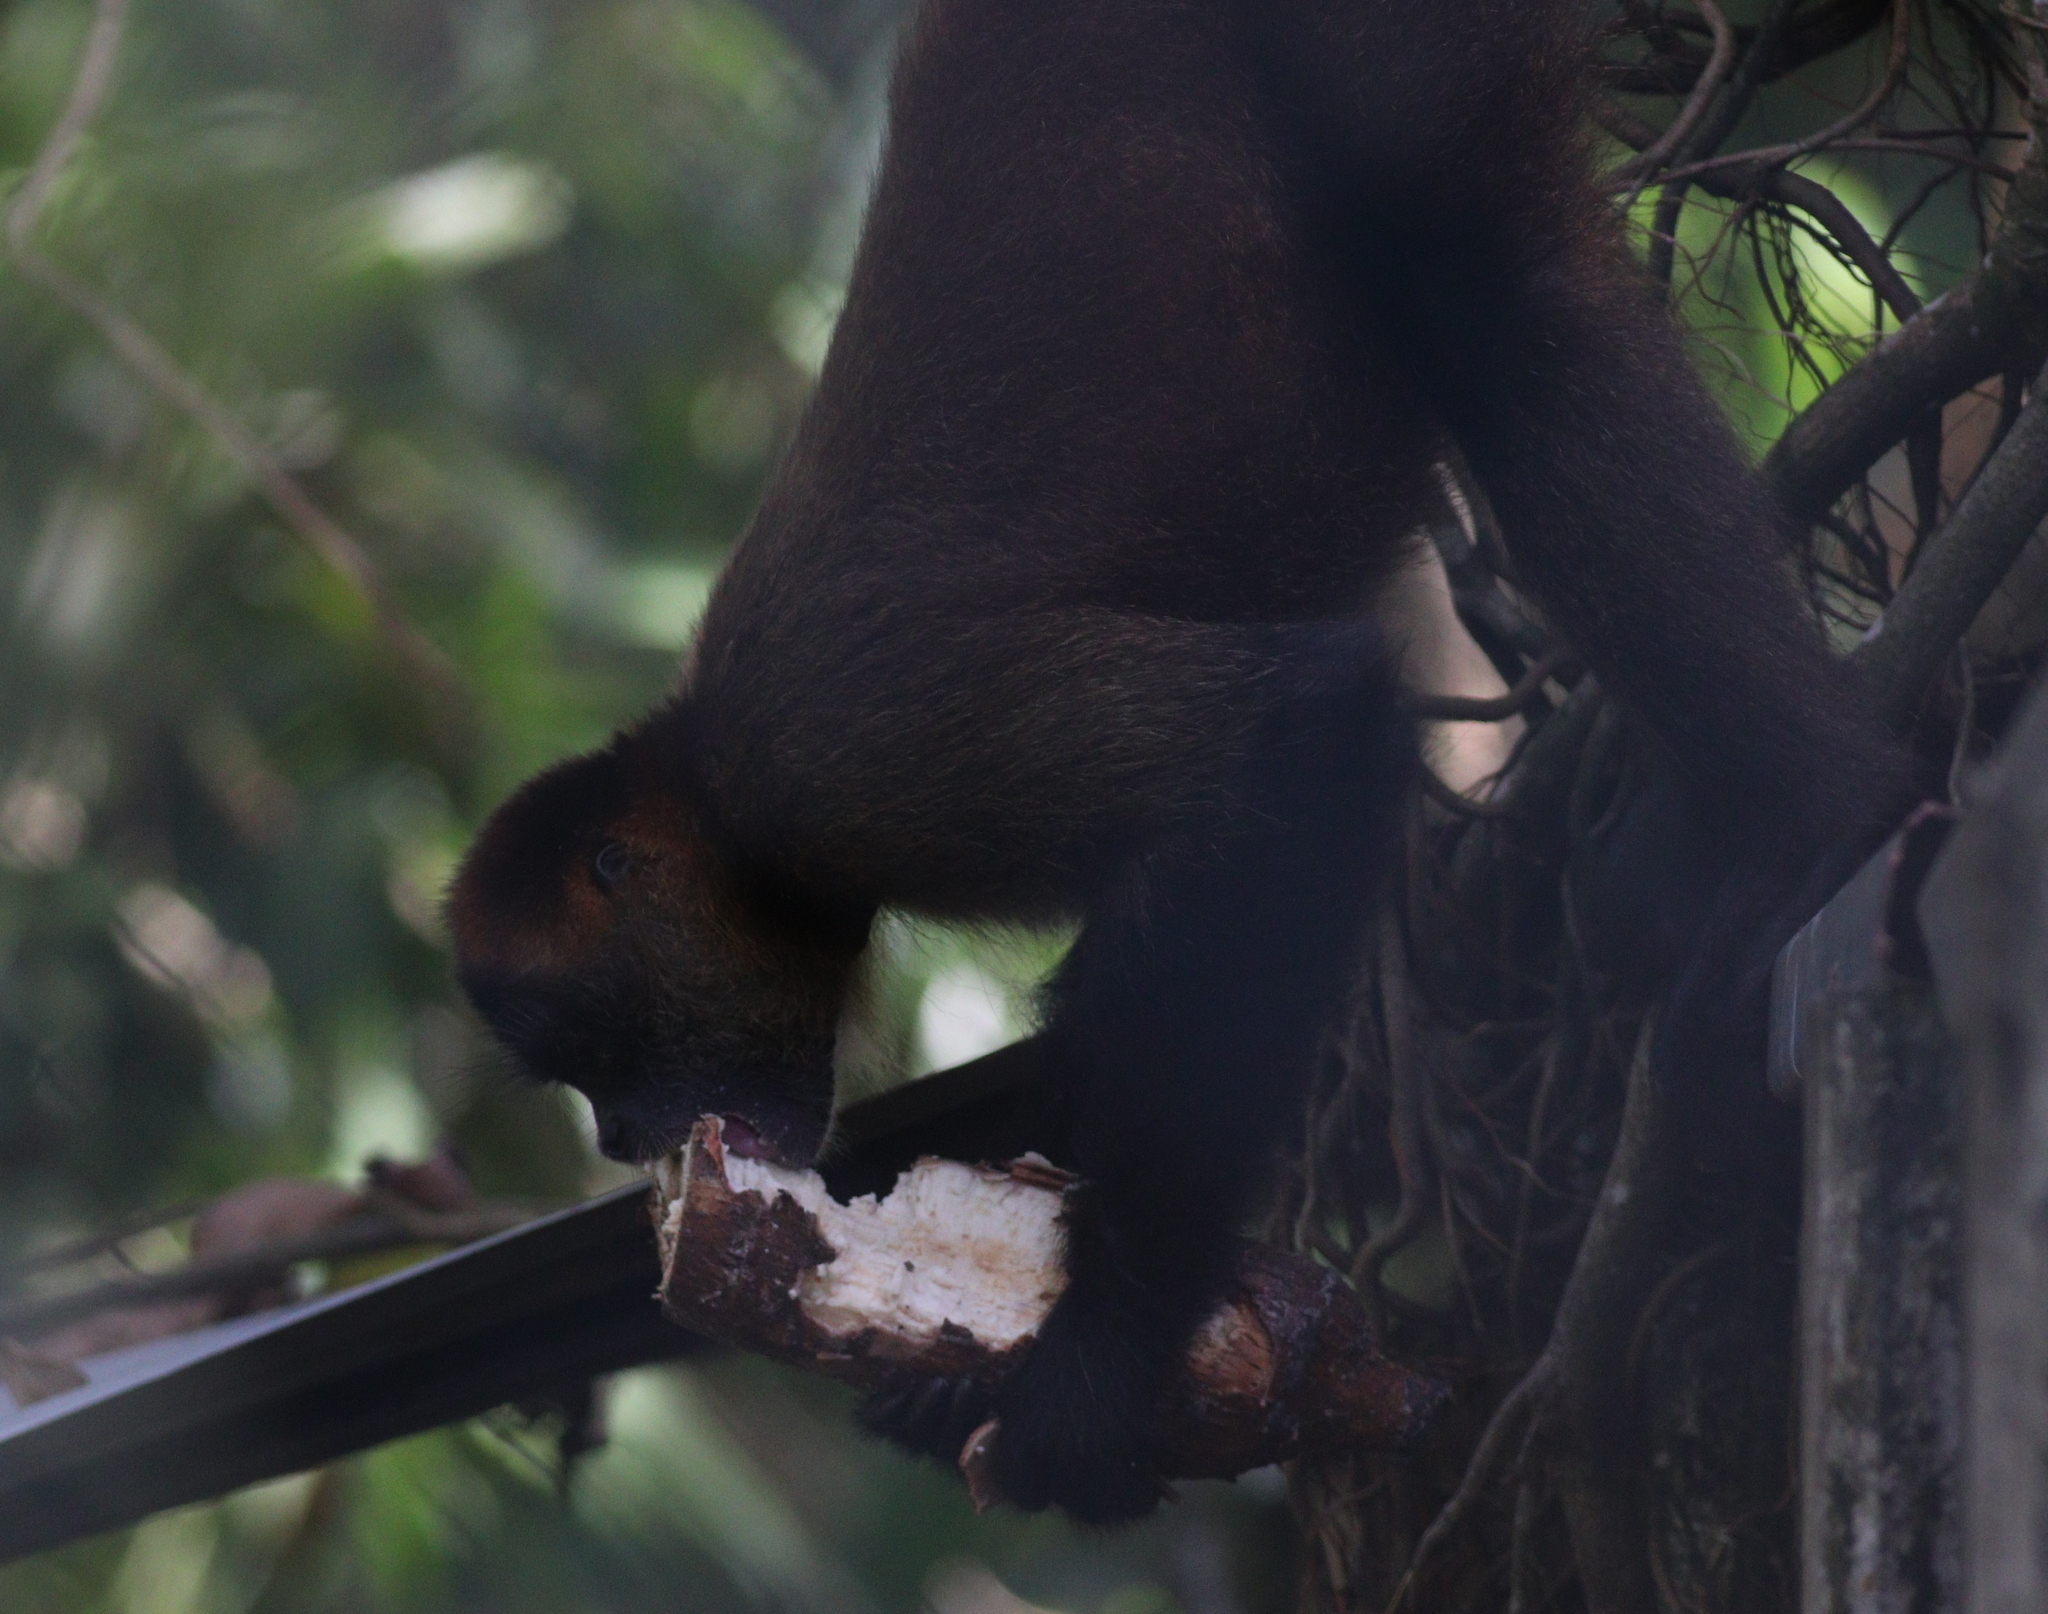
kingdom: Animalia
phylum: Chordata
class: Mammalia
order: Primates
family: Atelidae
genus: Alouatta
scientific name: Alouatta palliata
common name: Mantled howler
